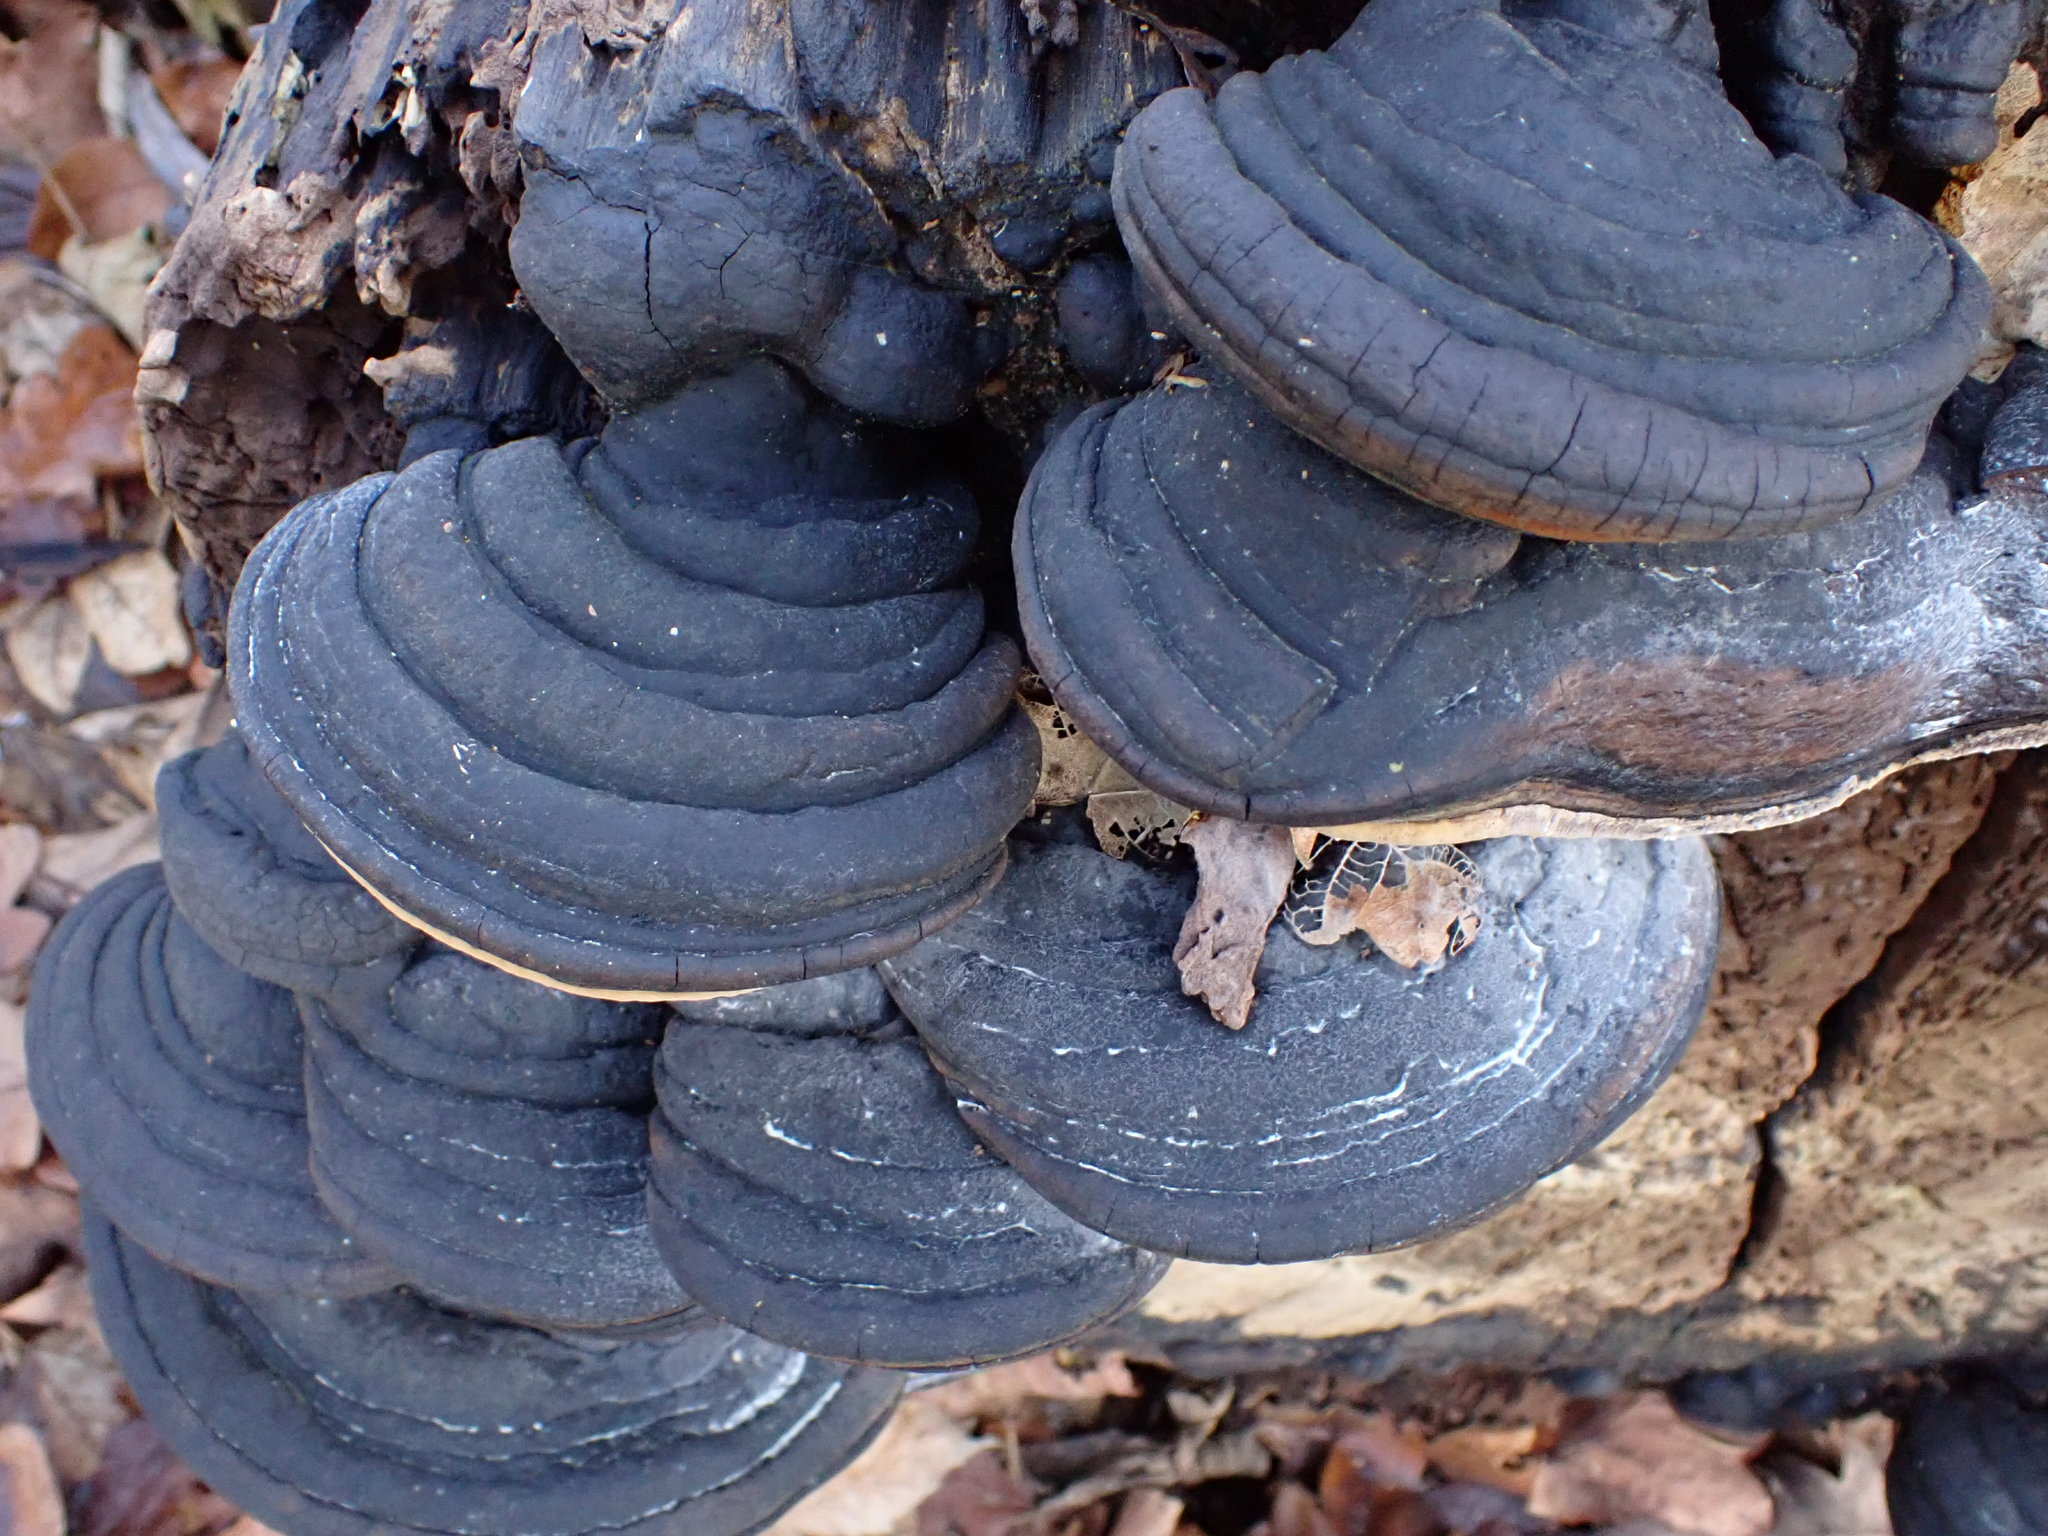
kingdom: Fungi
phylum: Basidiomycota
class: Agaricomycetes
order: Hymenochaetales
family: Hymenochaetaceae
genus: Fomitiporia
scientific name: Fomitiporia robusta
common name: Robust bracket
